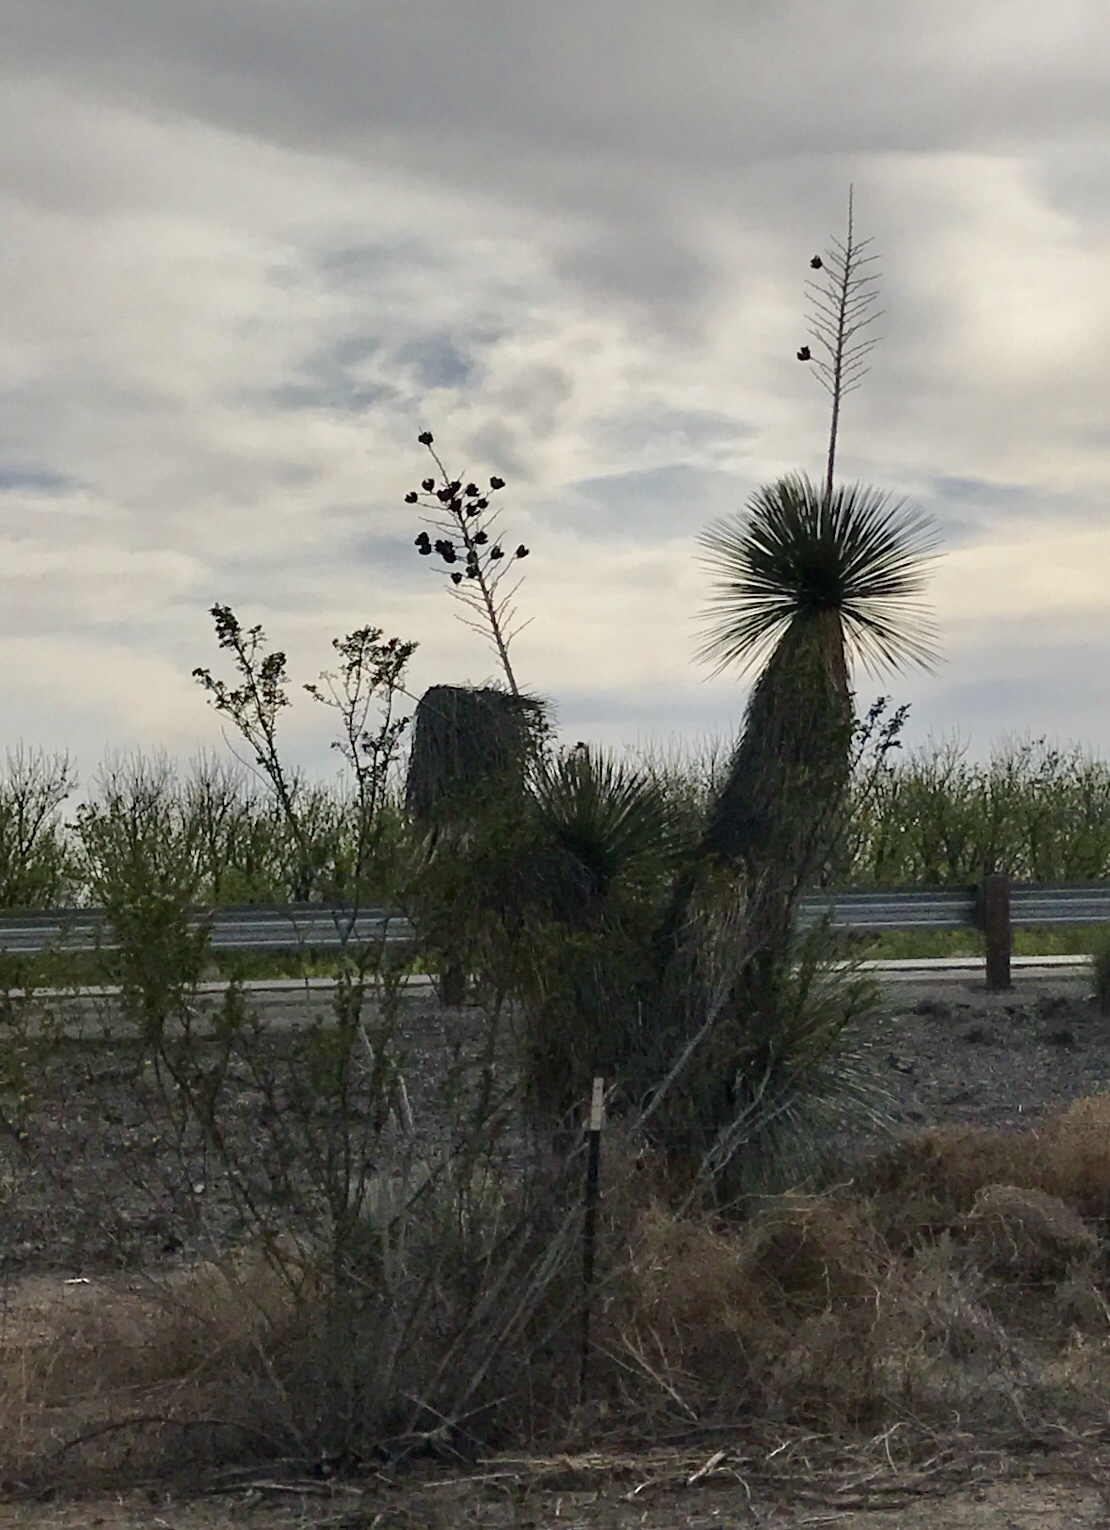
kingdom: Plantae
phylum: Tracheophyta
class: Liliopsida
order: Asparagales
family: Asparagaceae
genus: Yucca
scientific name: Yucca elata
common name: Palmella
